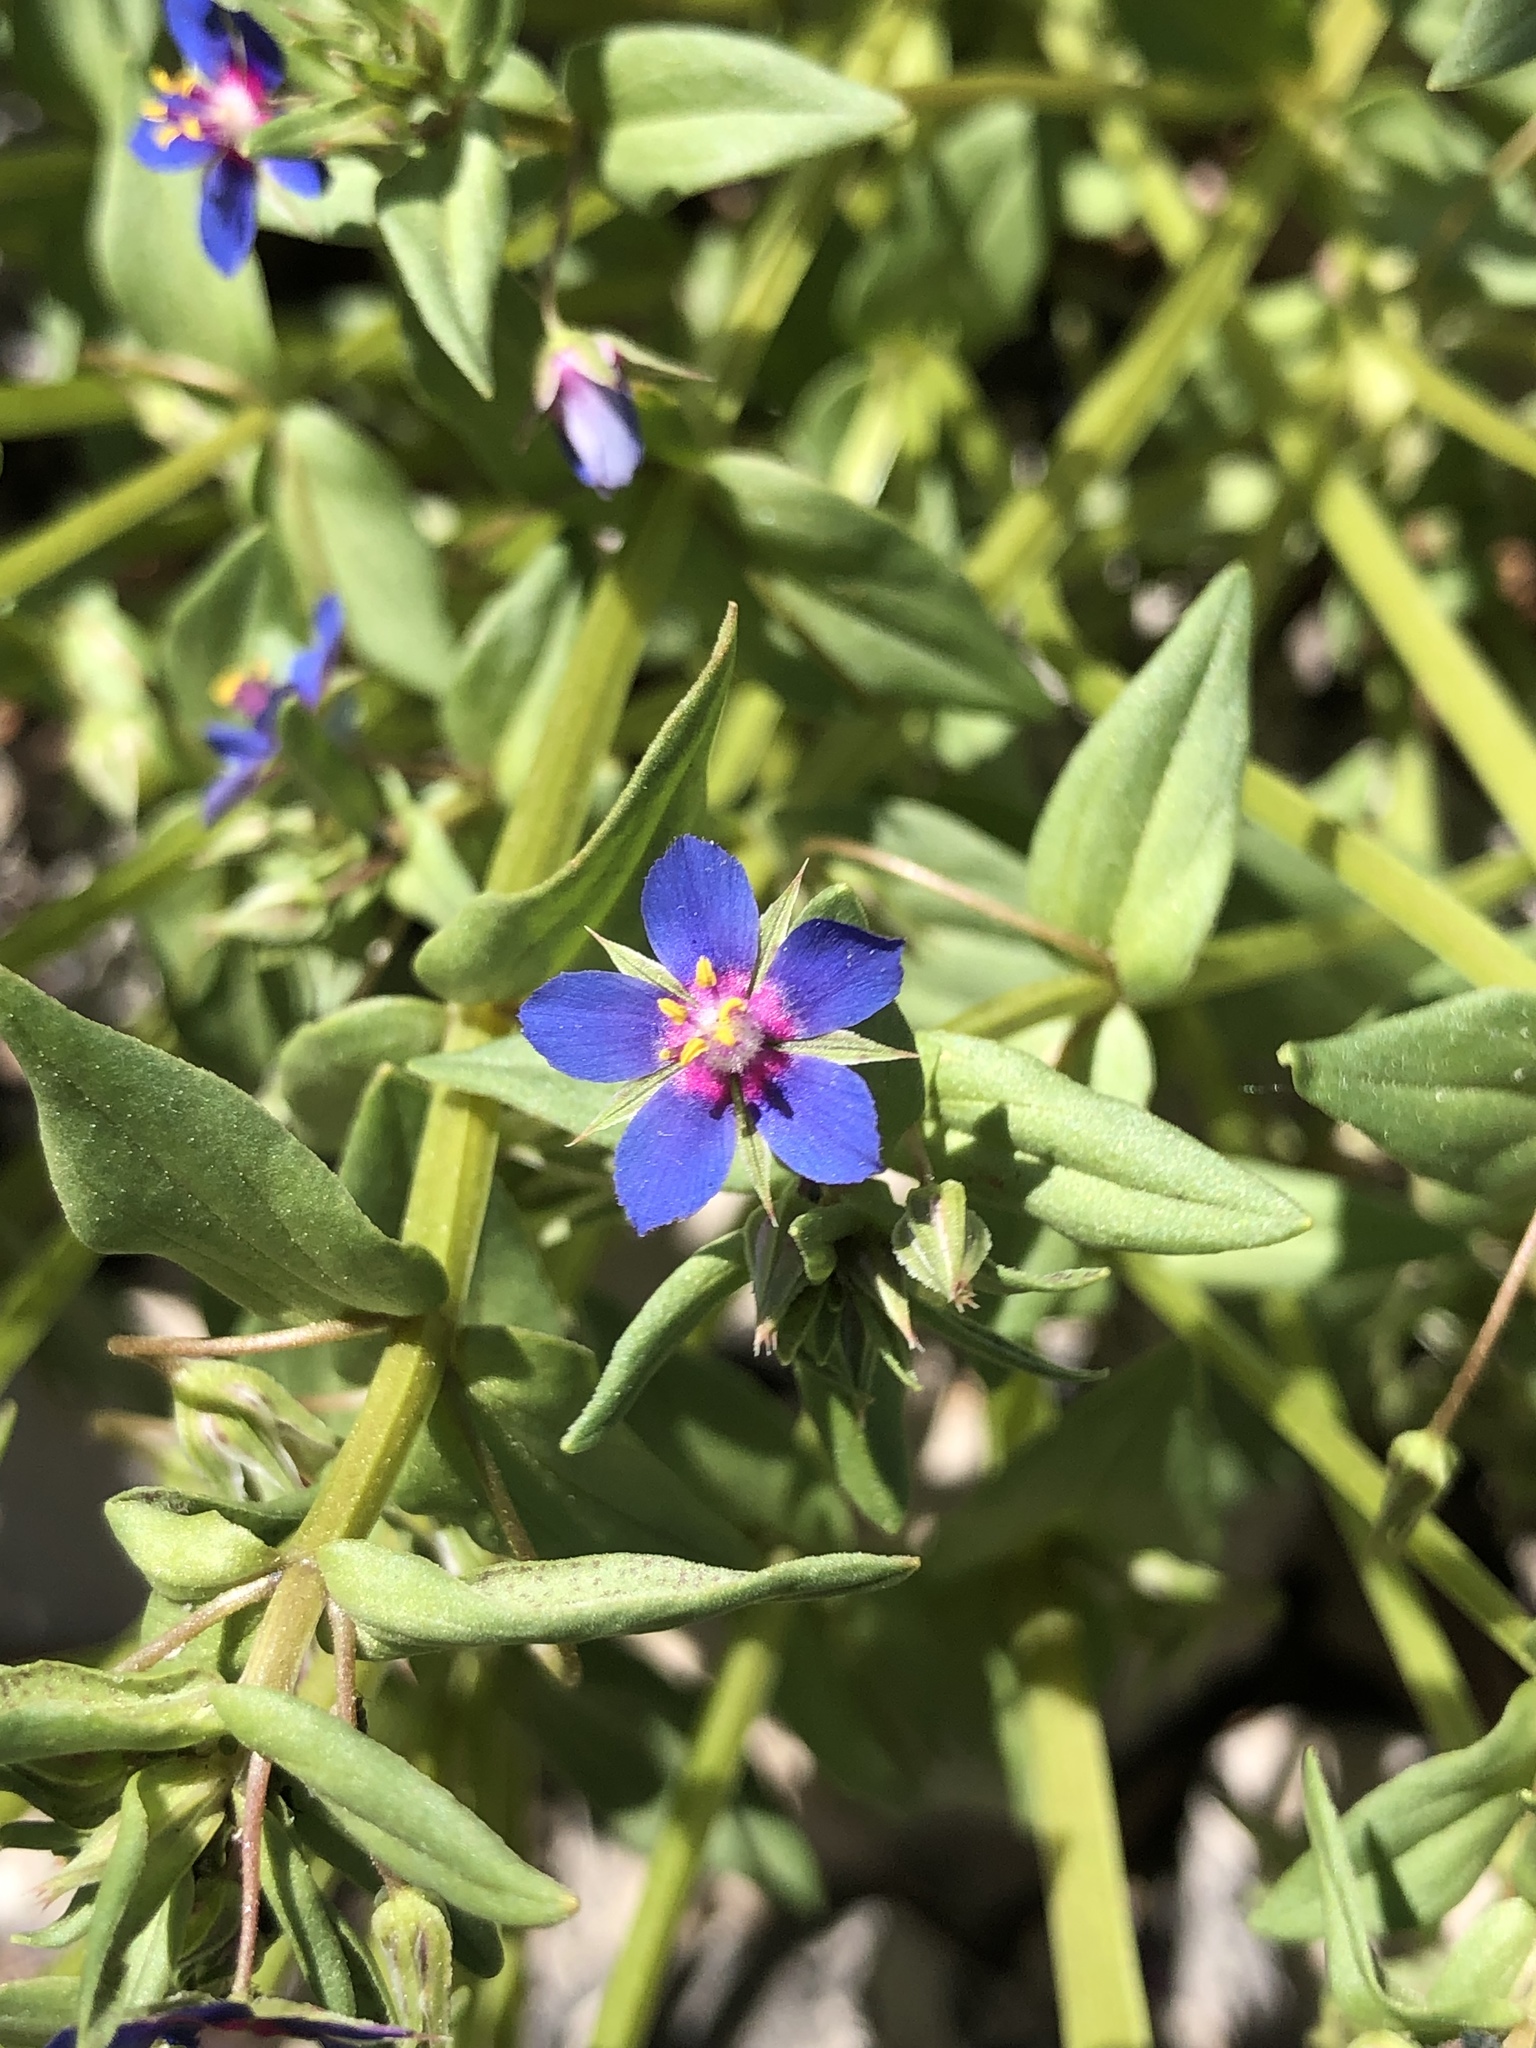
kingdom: Plantae
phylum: Tracheophyta
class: Magnoliopsida
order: Ericales
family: Primulaceae
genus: Lysimachia
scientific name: Lysimachia foemina
